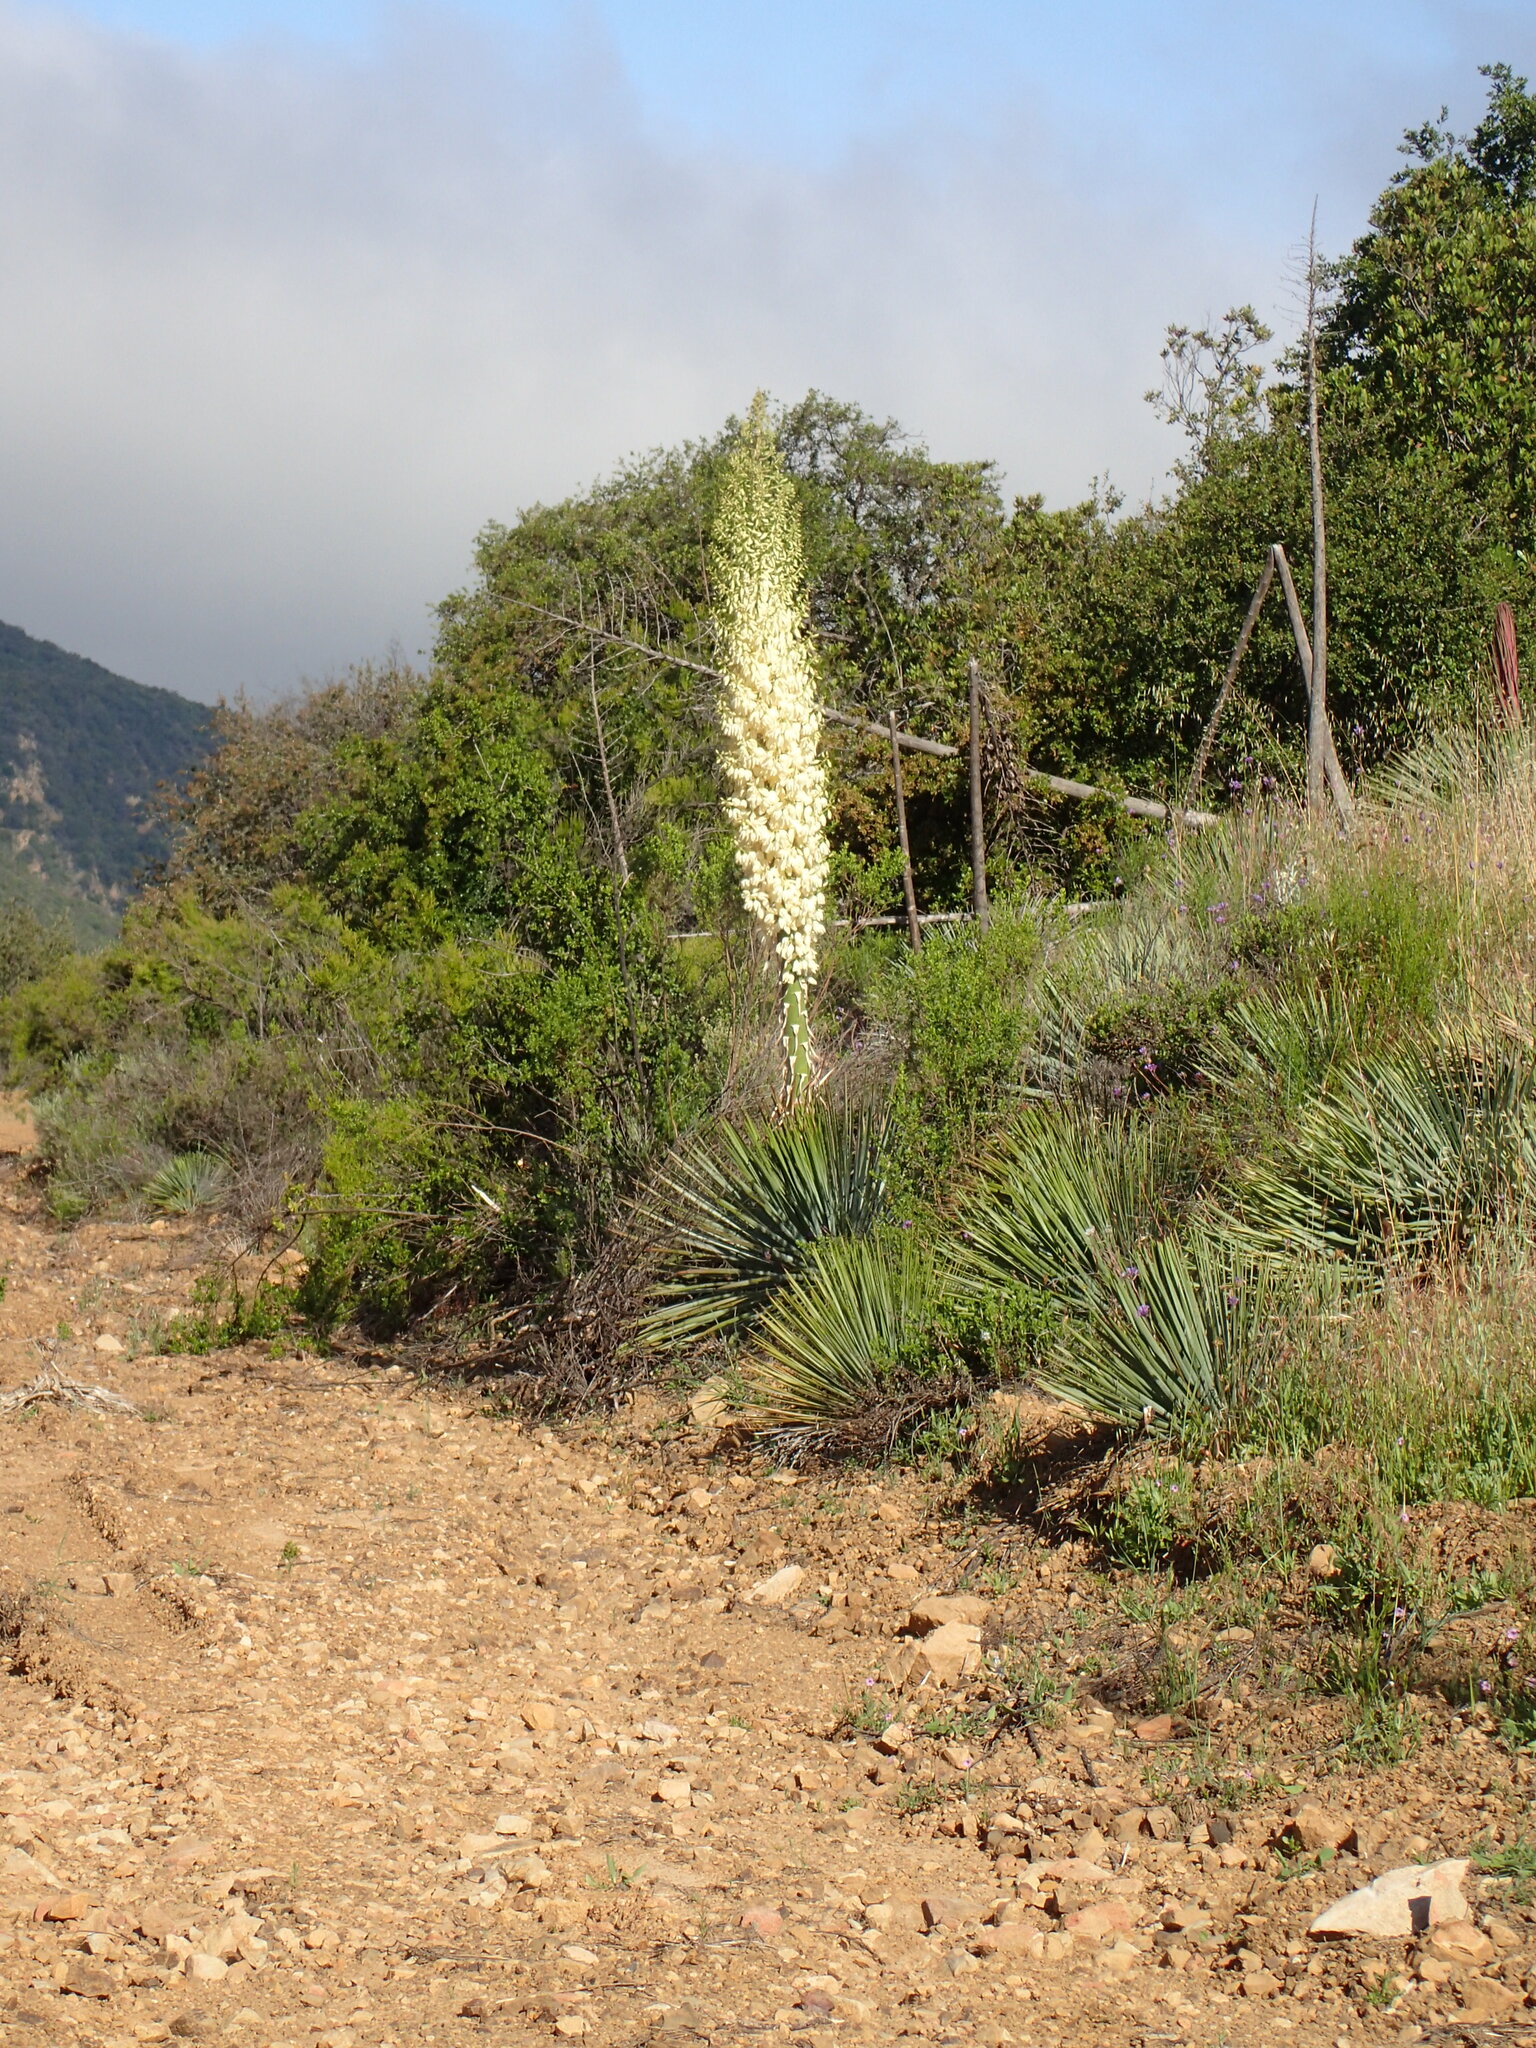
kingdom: Plantae
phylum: Tracheophyta
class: Liliopsida
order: Asparagales
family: Asparagaceae
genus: Hesperoyucca
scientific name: Hesperoyucca whipplei
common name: Our lord's-candle
